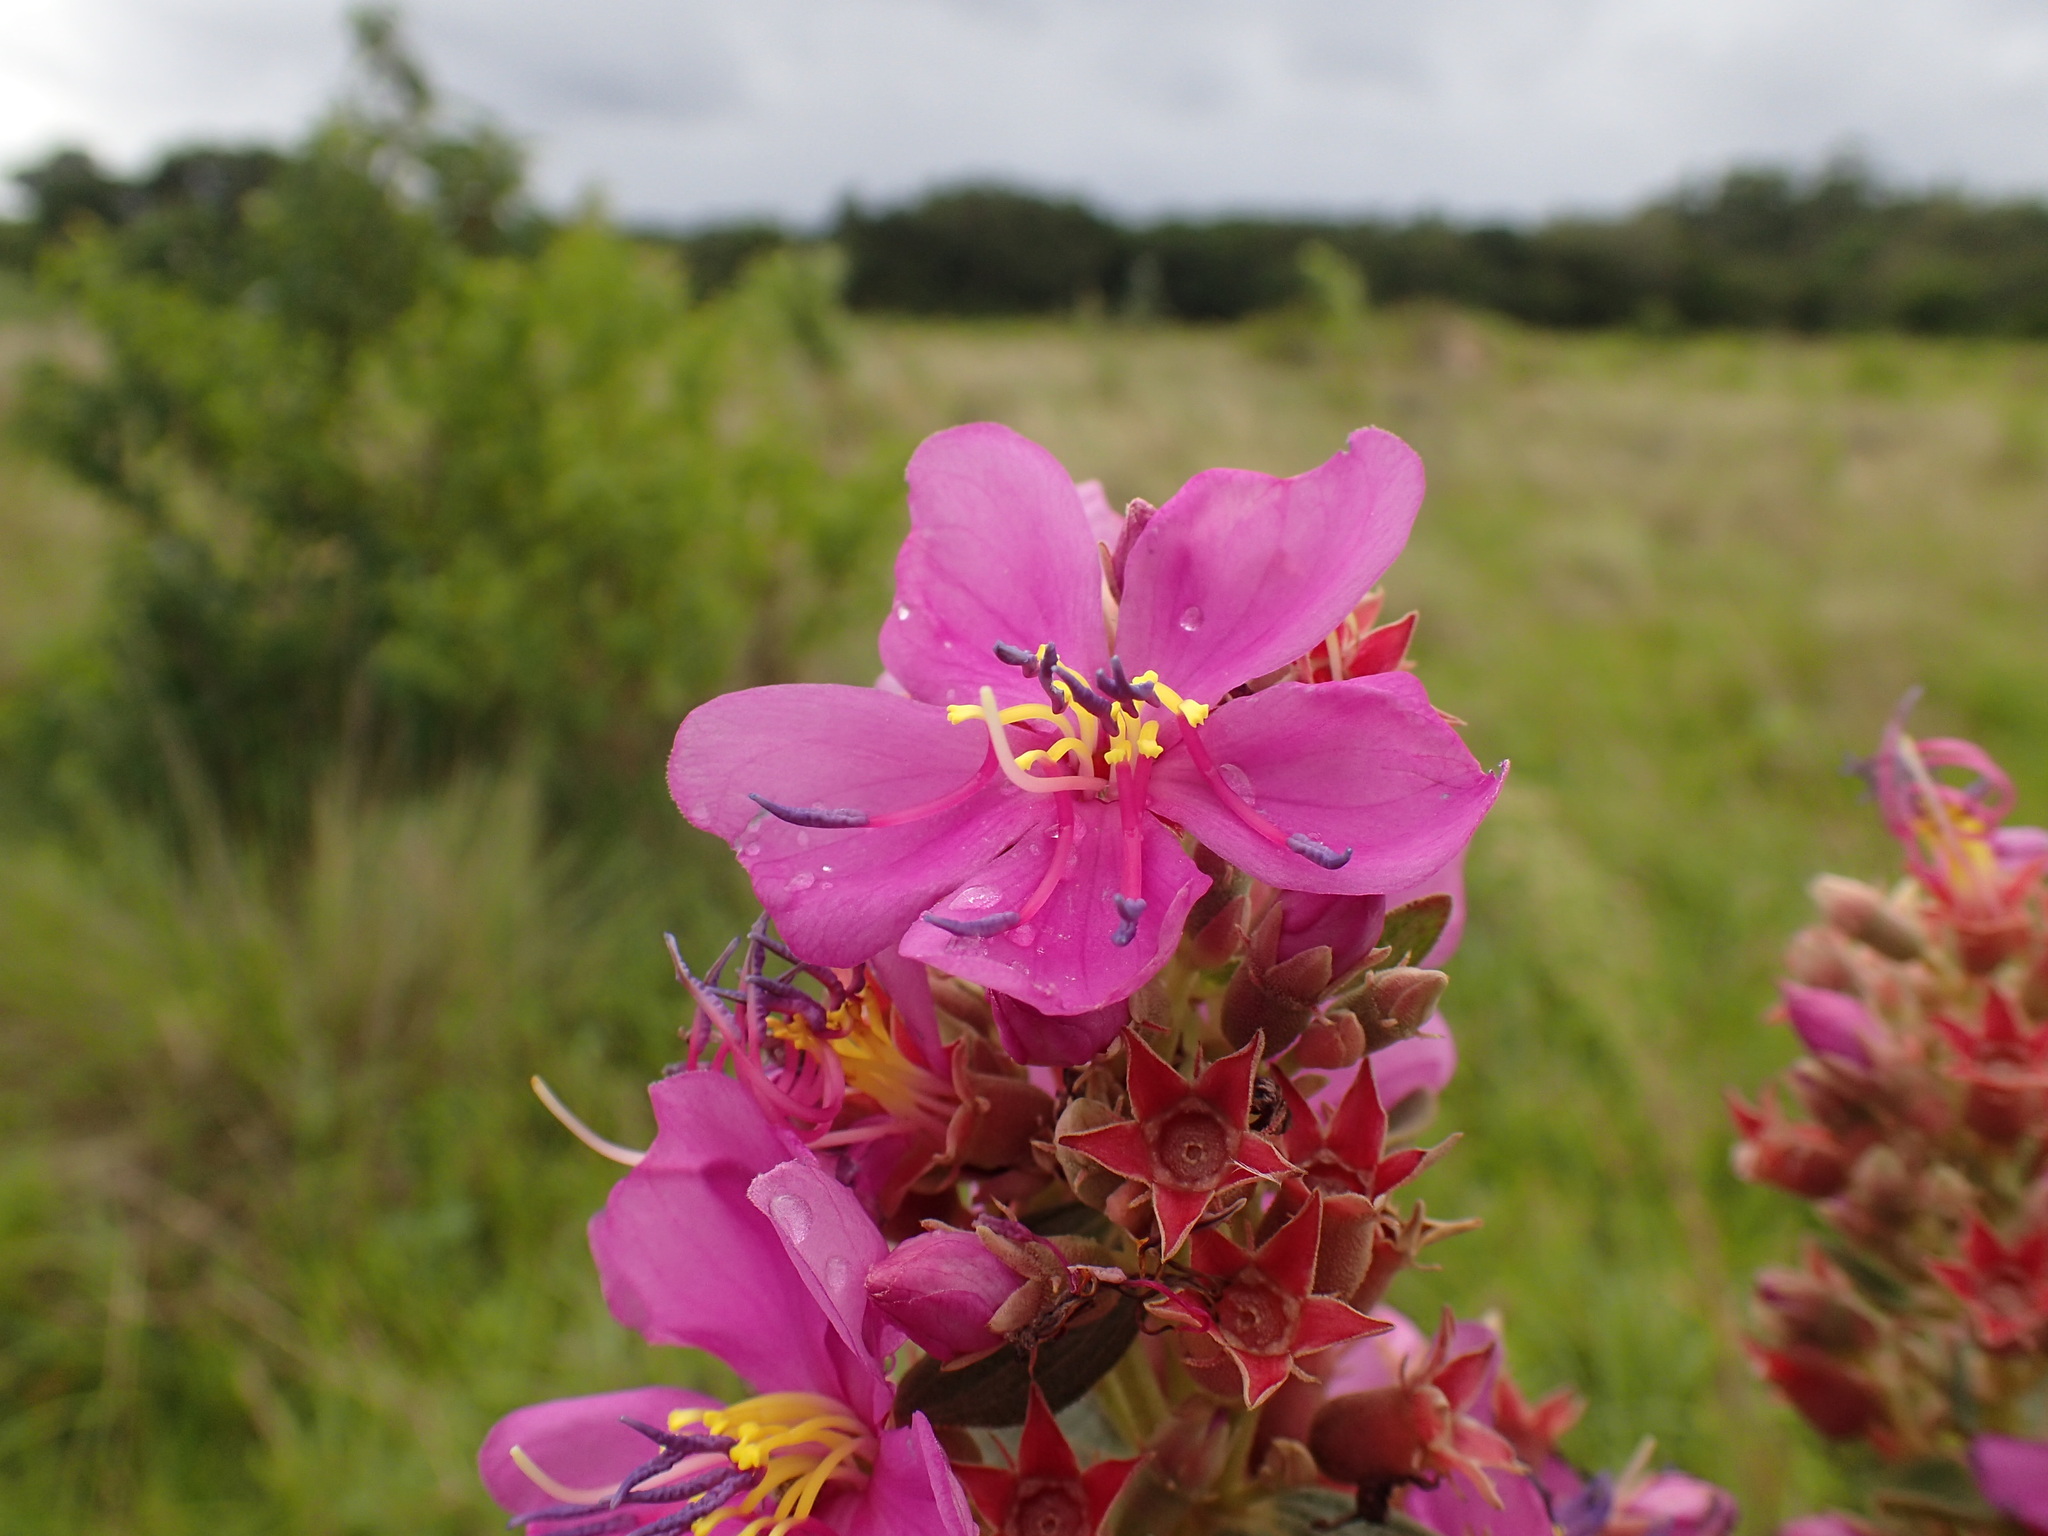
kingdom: Plantae
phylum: Tracheophyta
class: Magnoliopsida
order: Myrtales
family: Melastomataceae
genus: Argyrella
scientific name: Argyrella canescens
